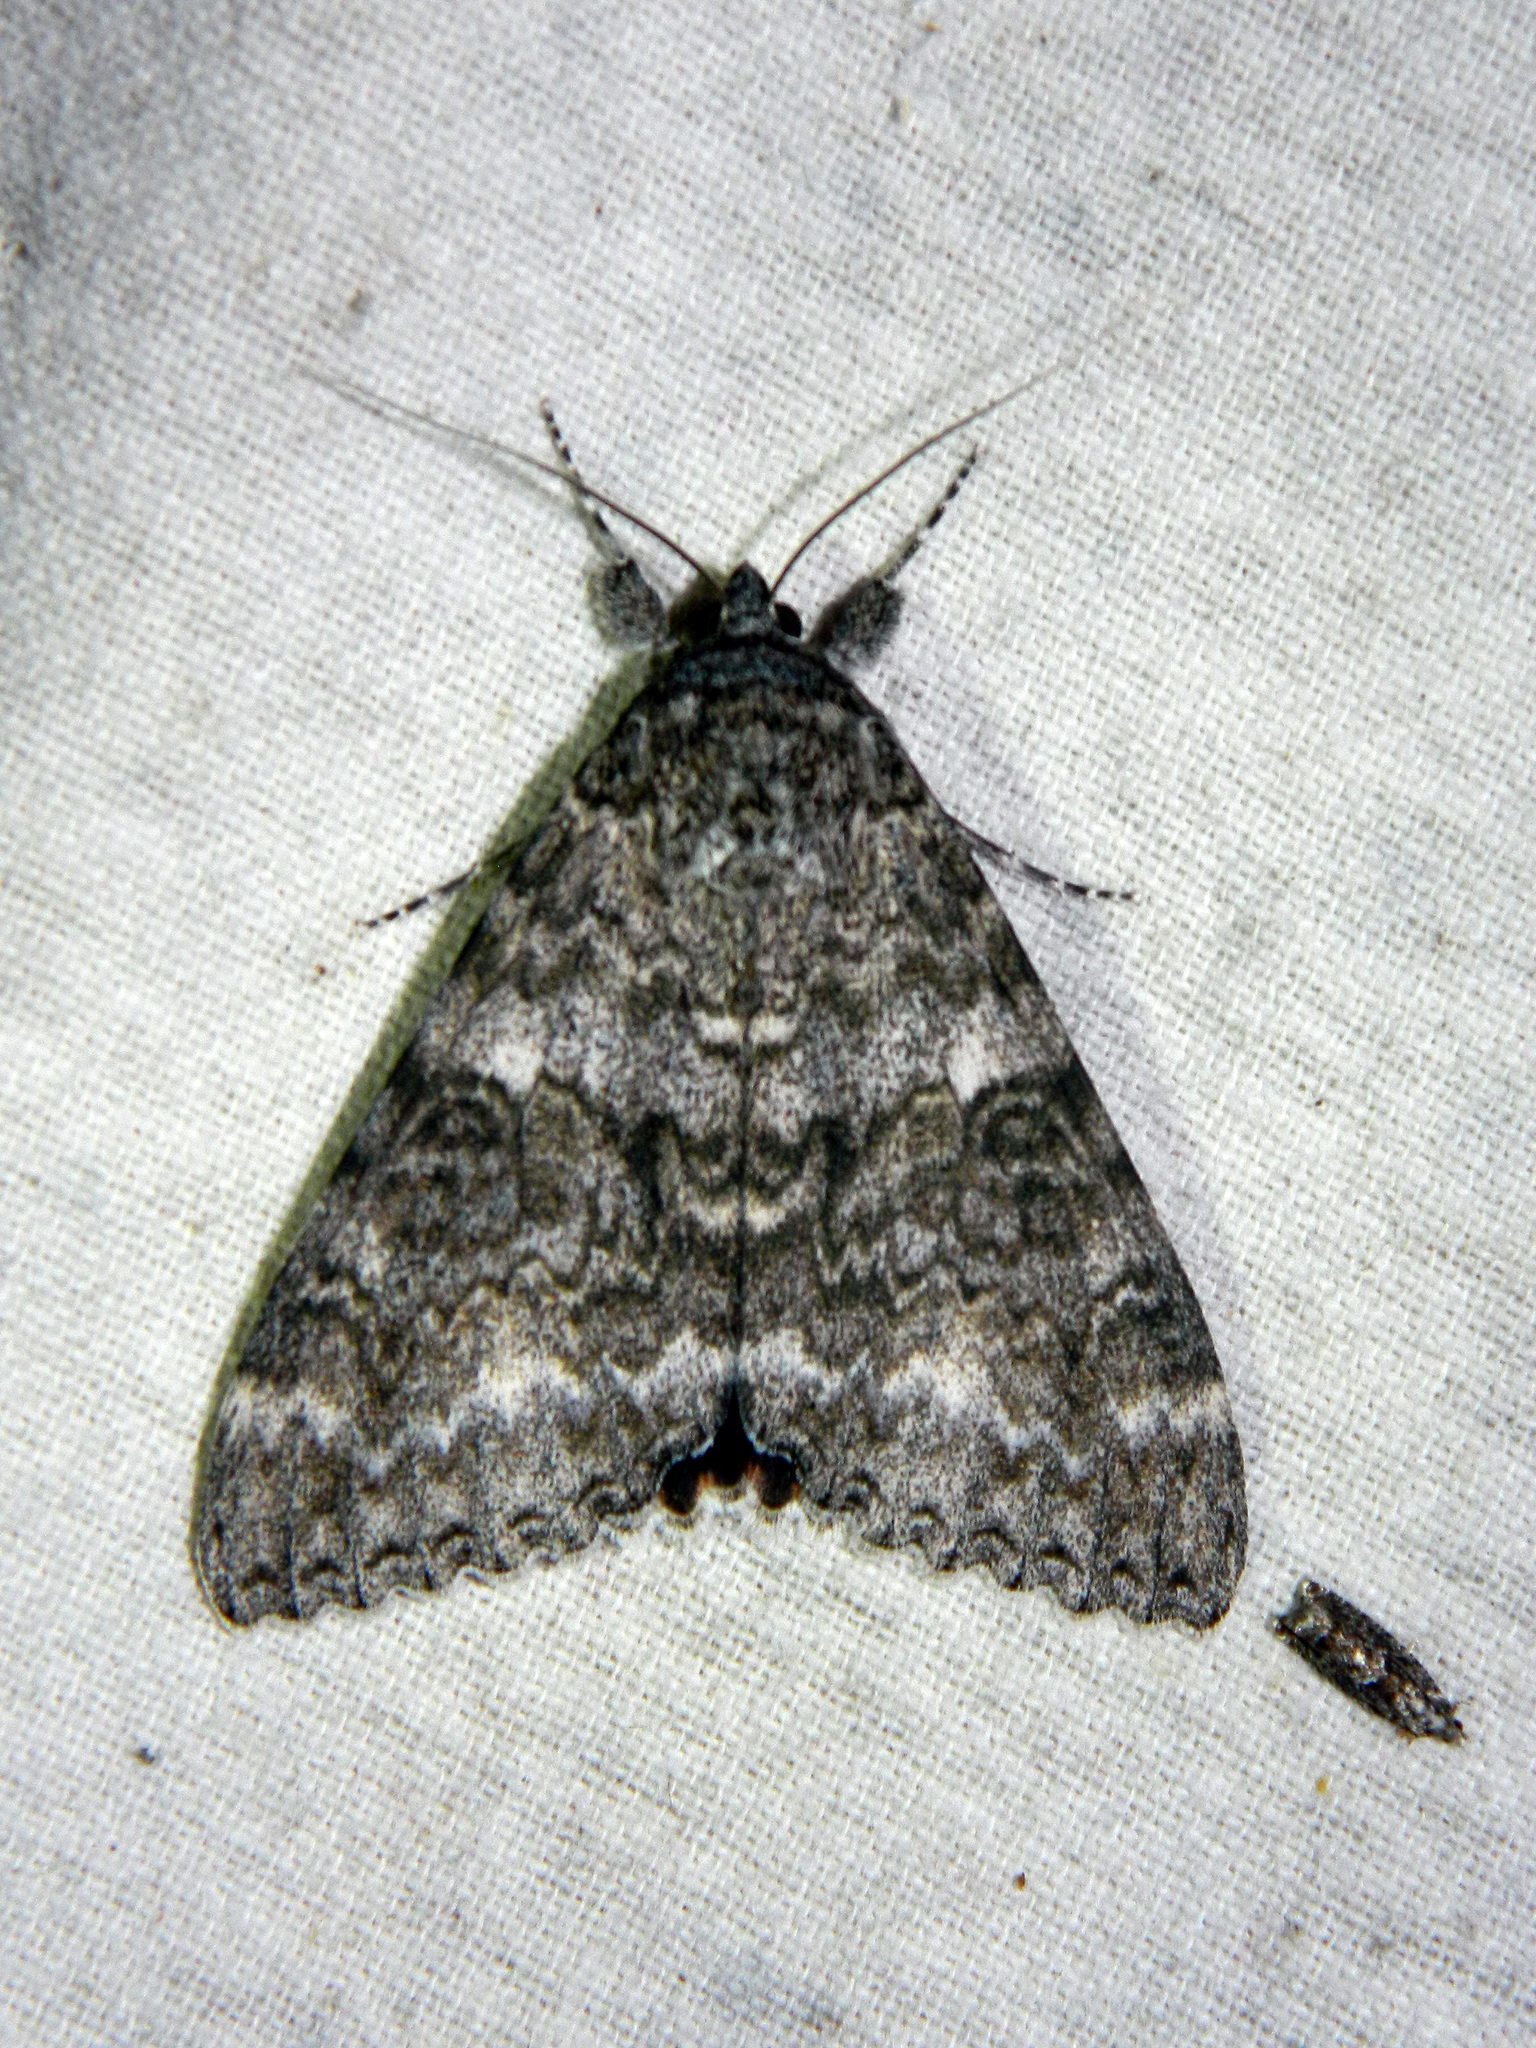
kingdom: Animalia
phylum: Arthropoda
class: Insecta
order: Lepidoptera
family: Erebidae
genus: Catocala
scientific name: Catocala unijuga
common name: Once-married underwing
